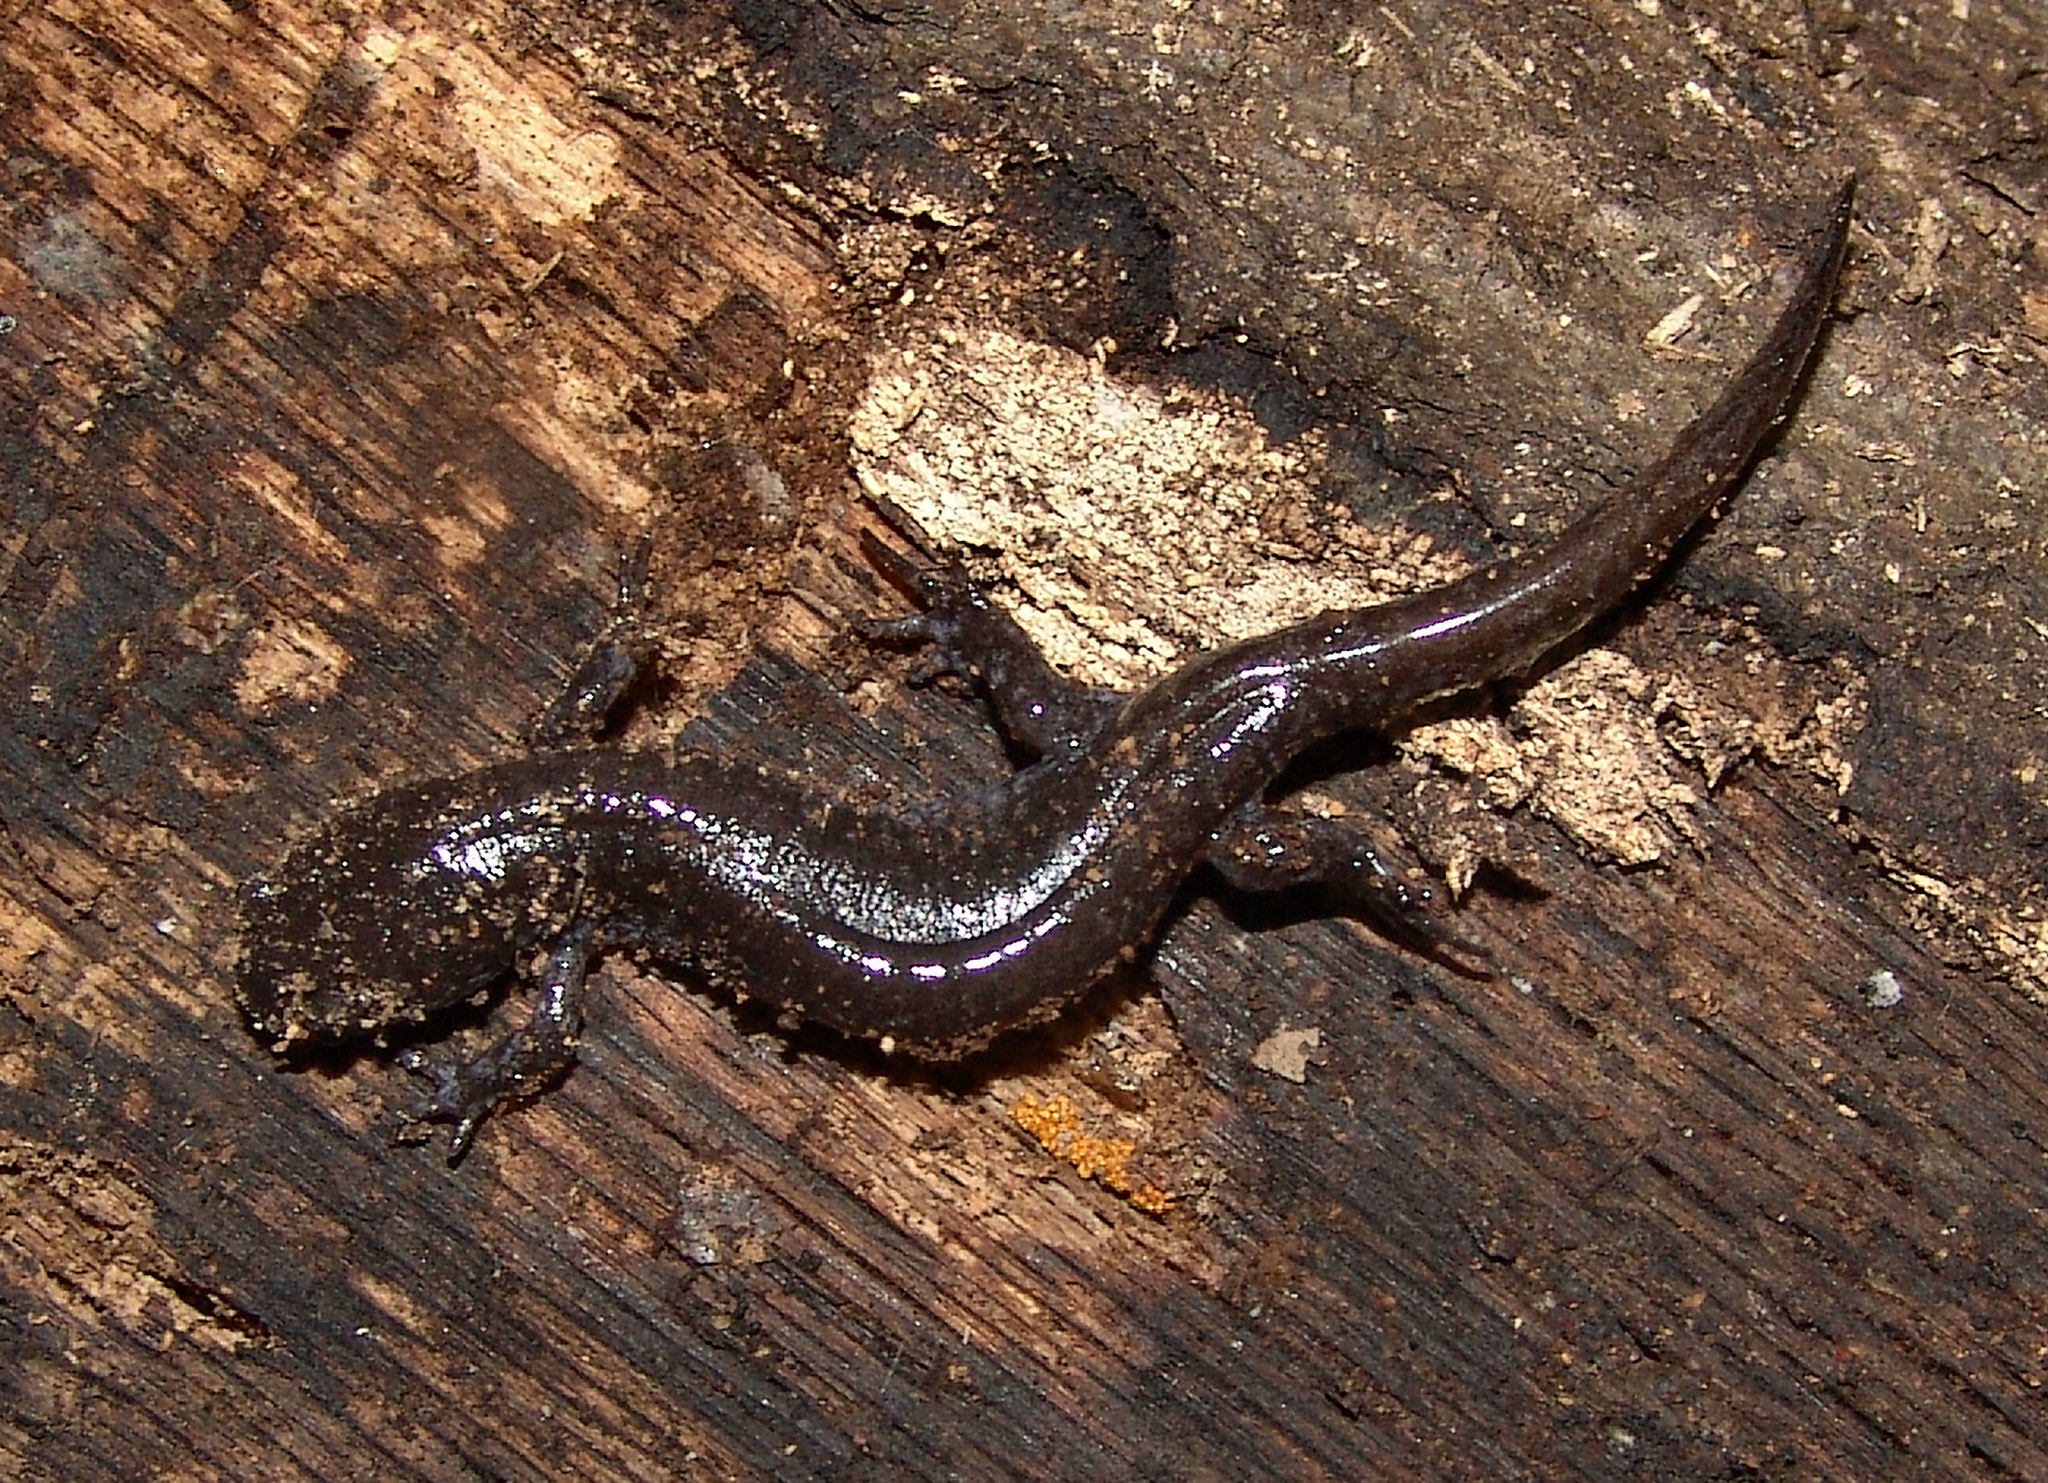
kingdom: Animalia
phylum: Chordata
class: Amphibia
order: Caudata
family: Ambystomatidae
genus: Ambystoma
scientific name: Ambystoma texanum
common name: Small-mouth salamander
